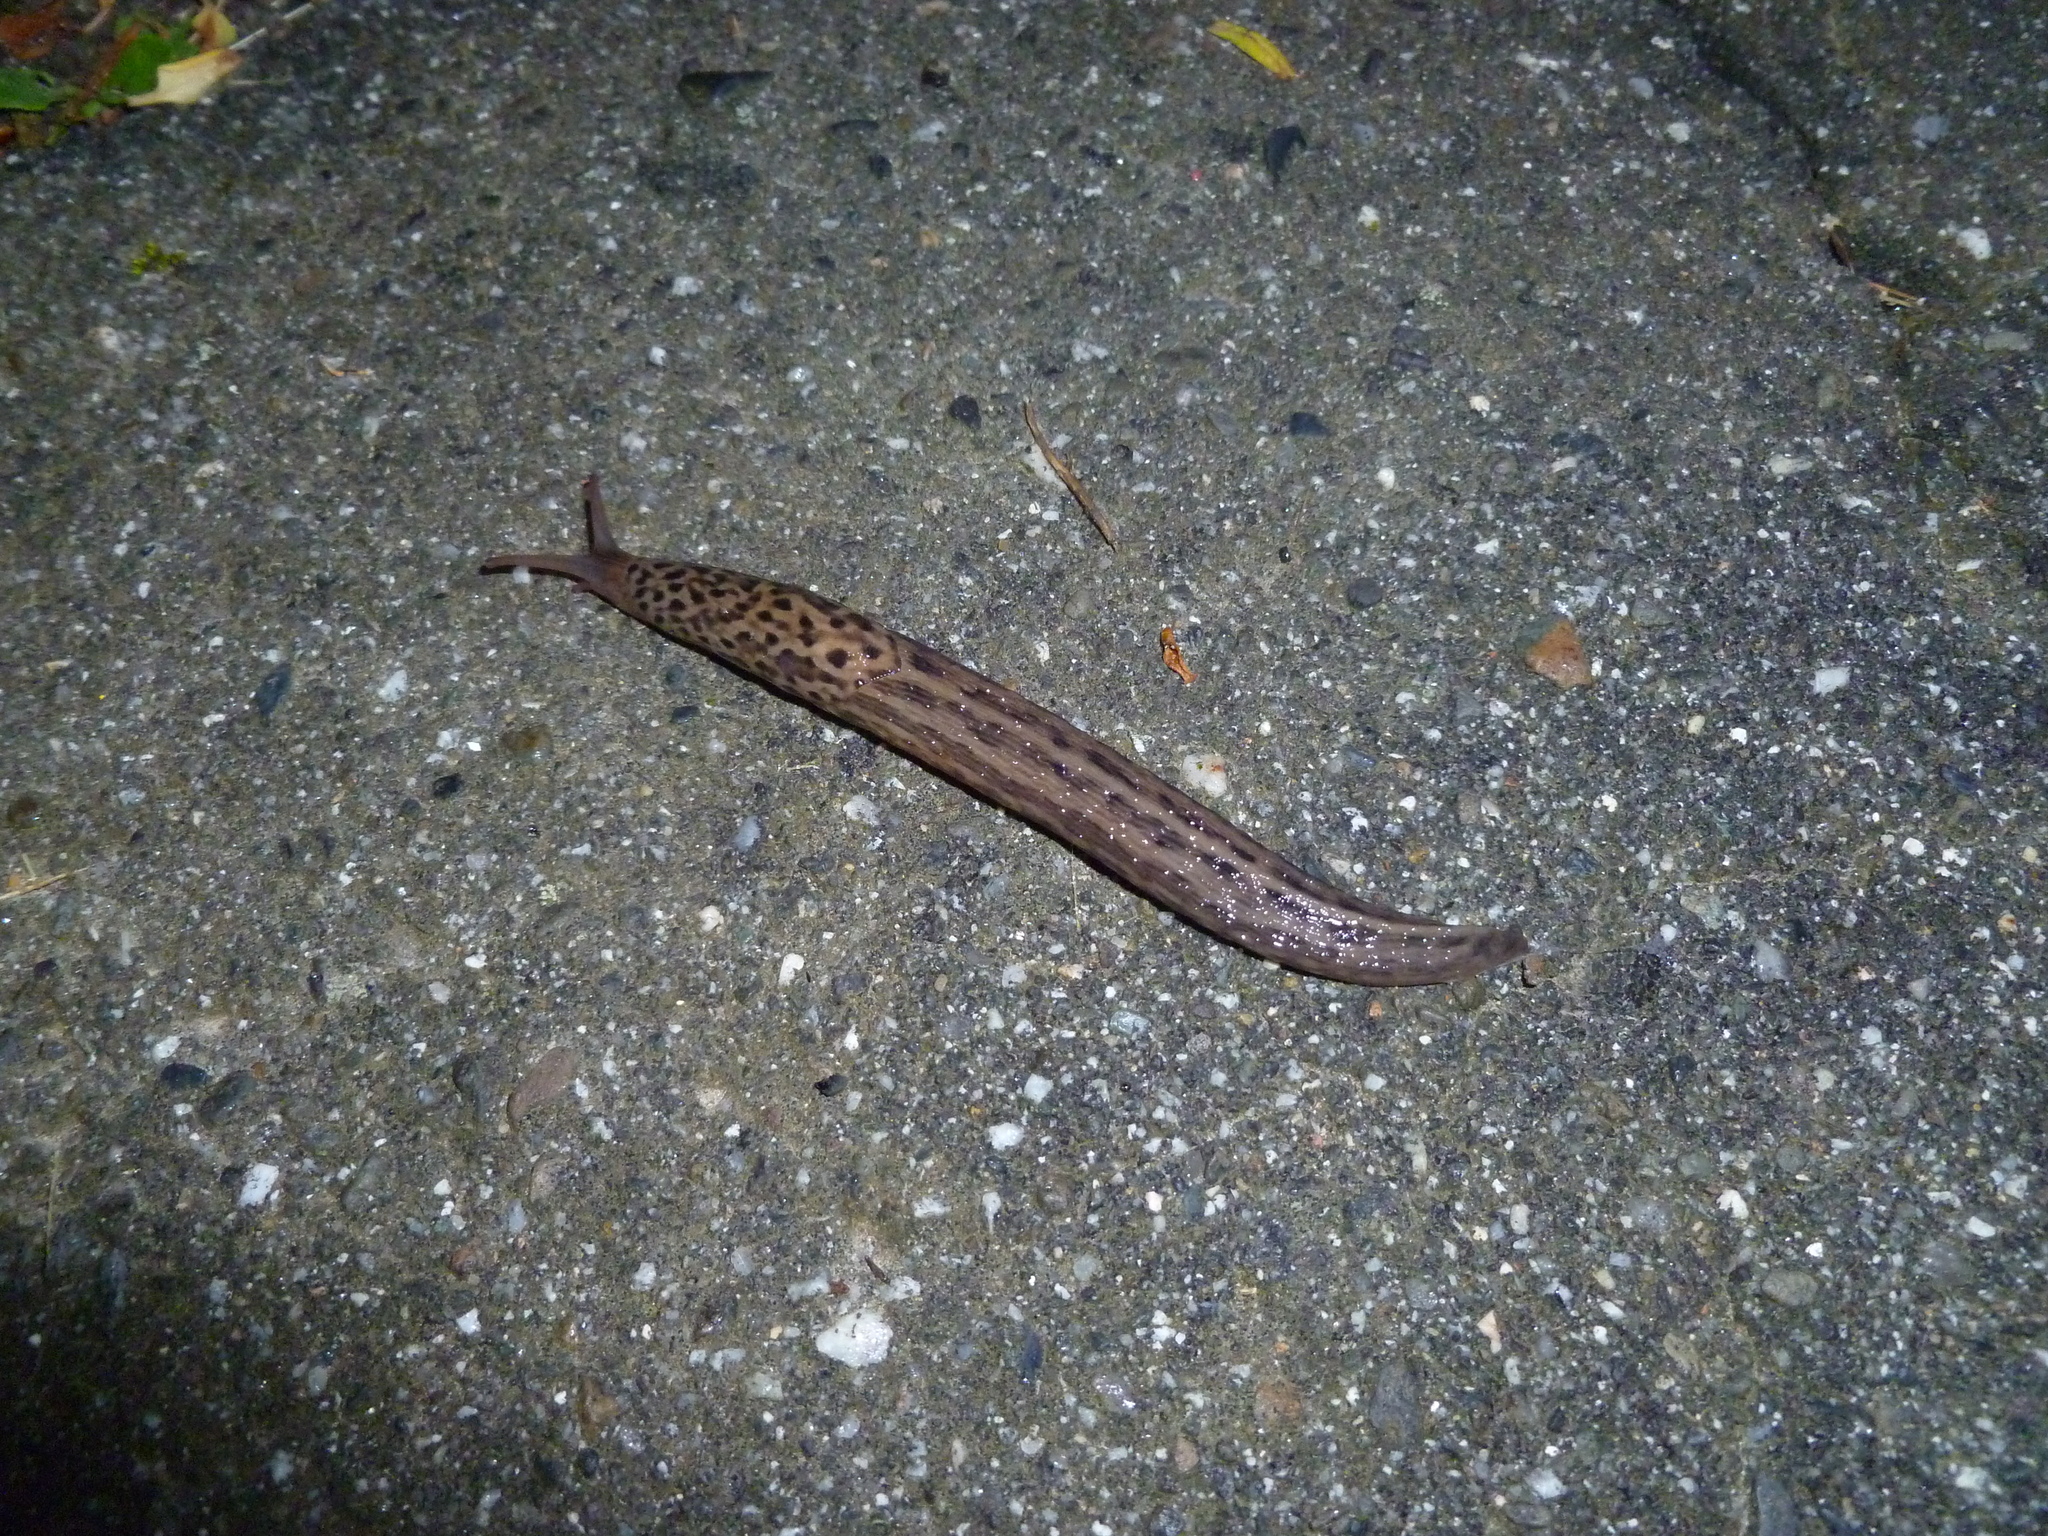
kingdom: Animalia
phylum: Mollusca
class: Gastropoda
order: Stylommatophora
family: Limacidae
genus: Limax
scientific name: Limax maximus
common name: Great grey slug
